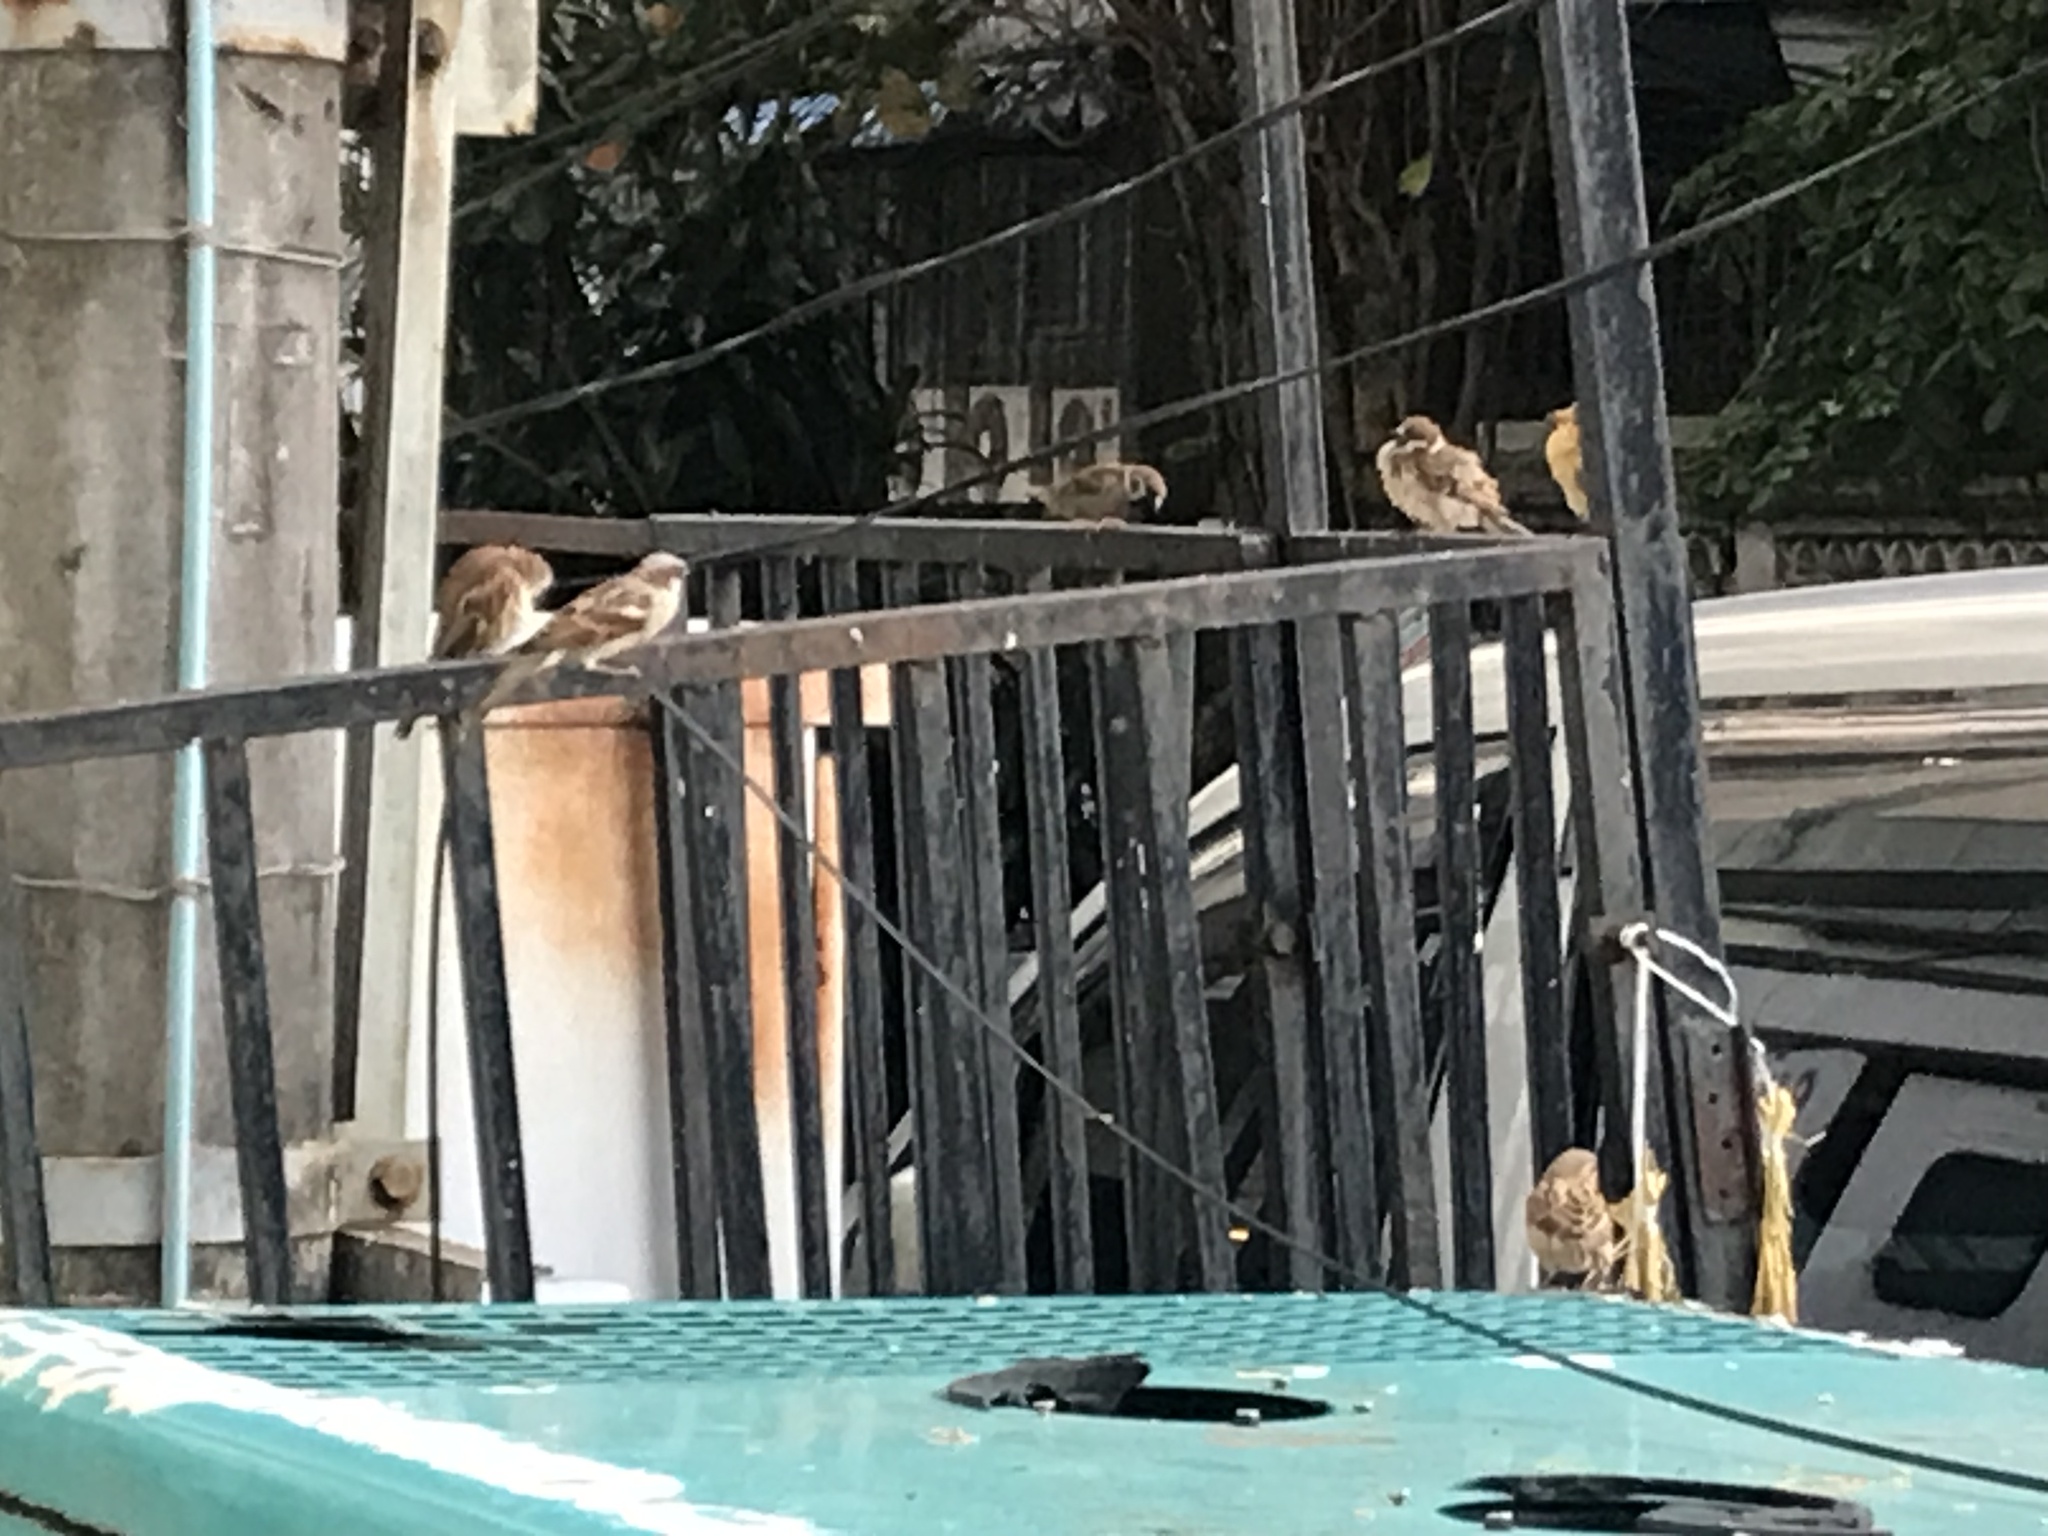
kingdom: Animalia
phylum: Chordata
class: Aves
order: Passeriformes
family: Passeridae
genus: Passer
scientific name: Passer domesticus
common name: House sparrow
